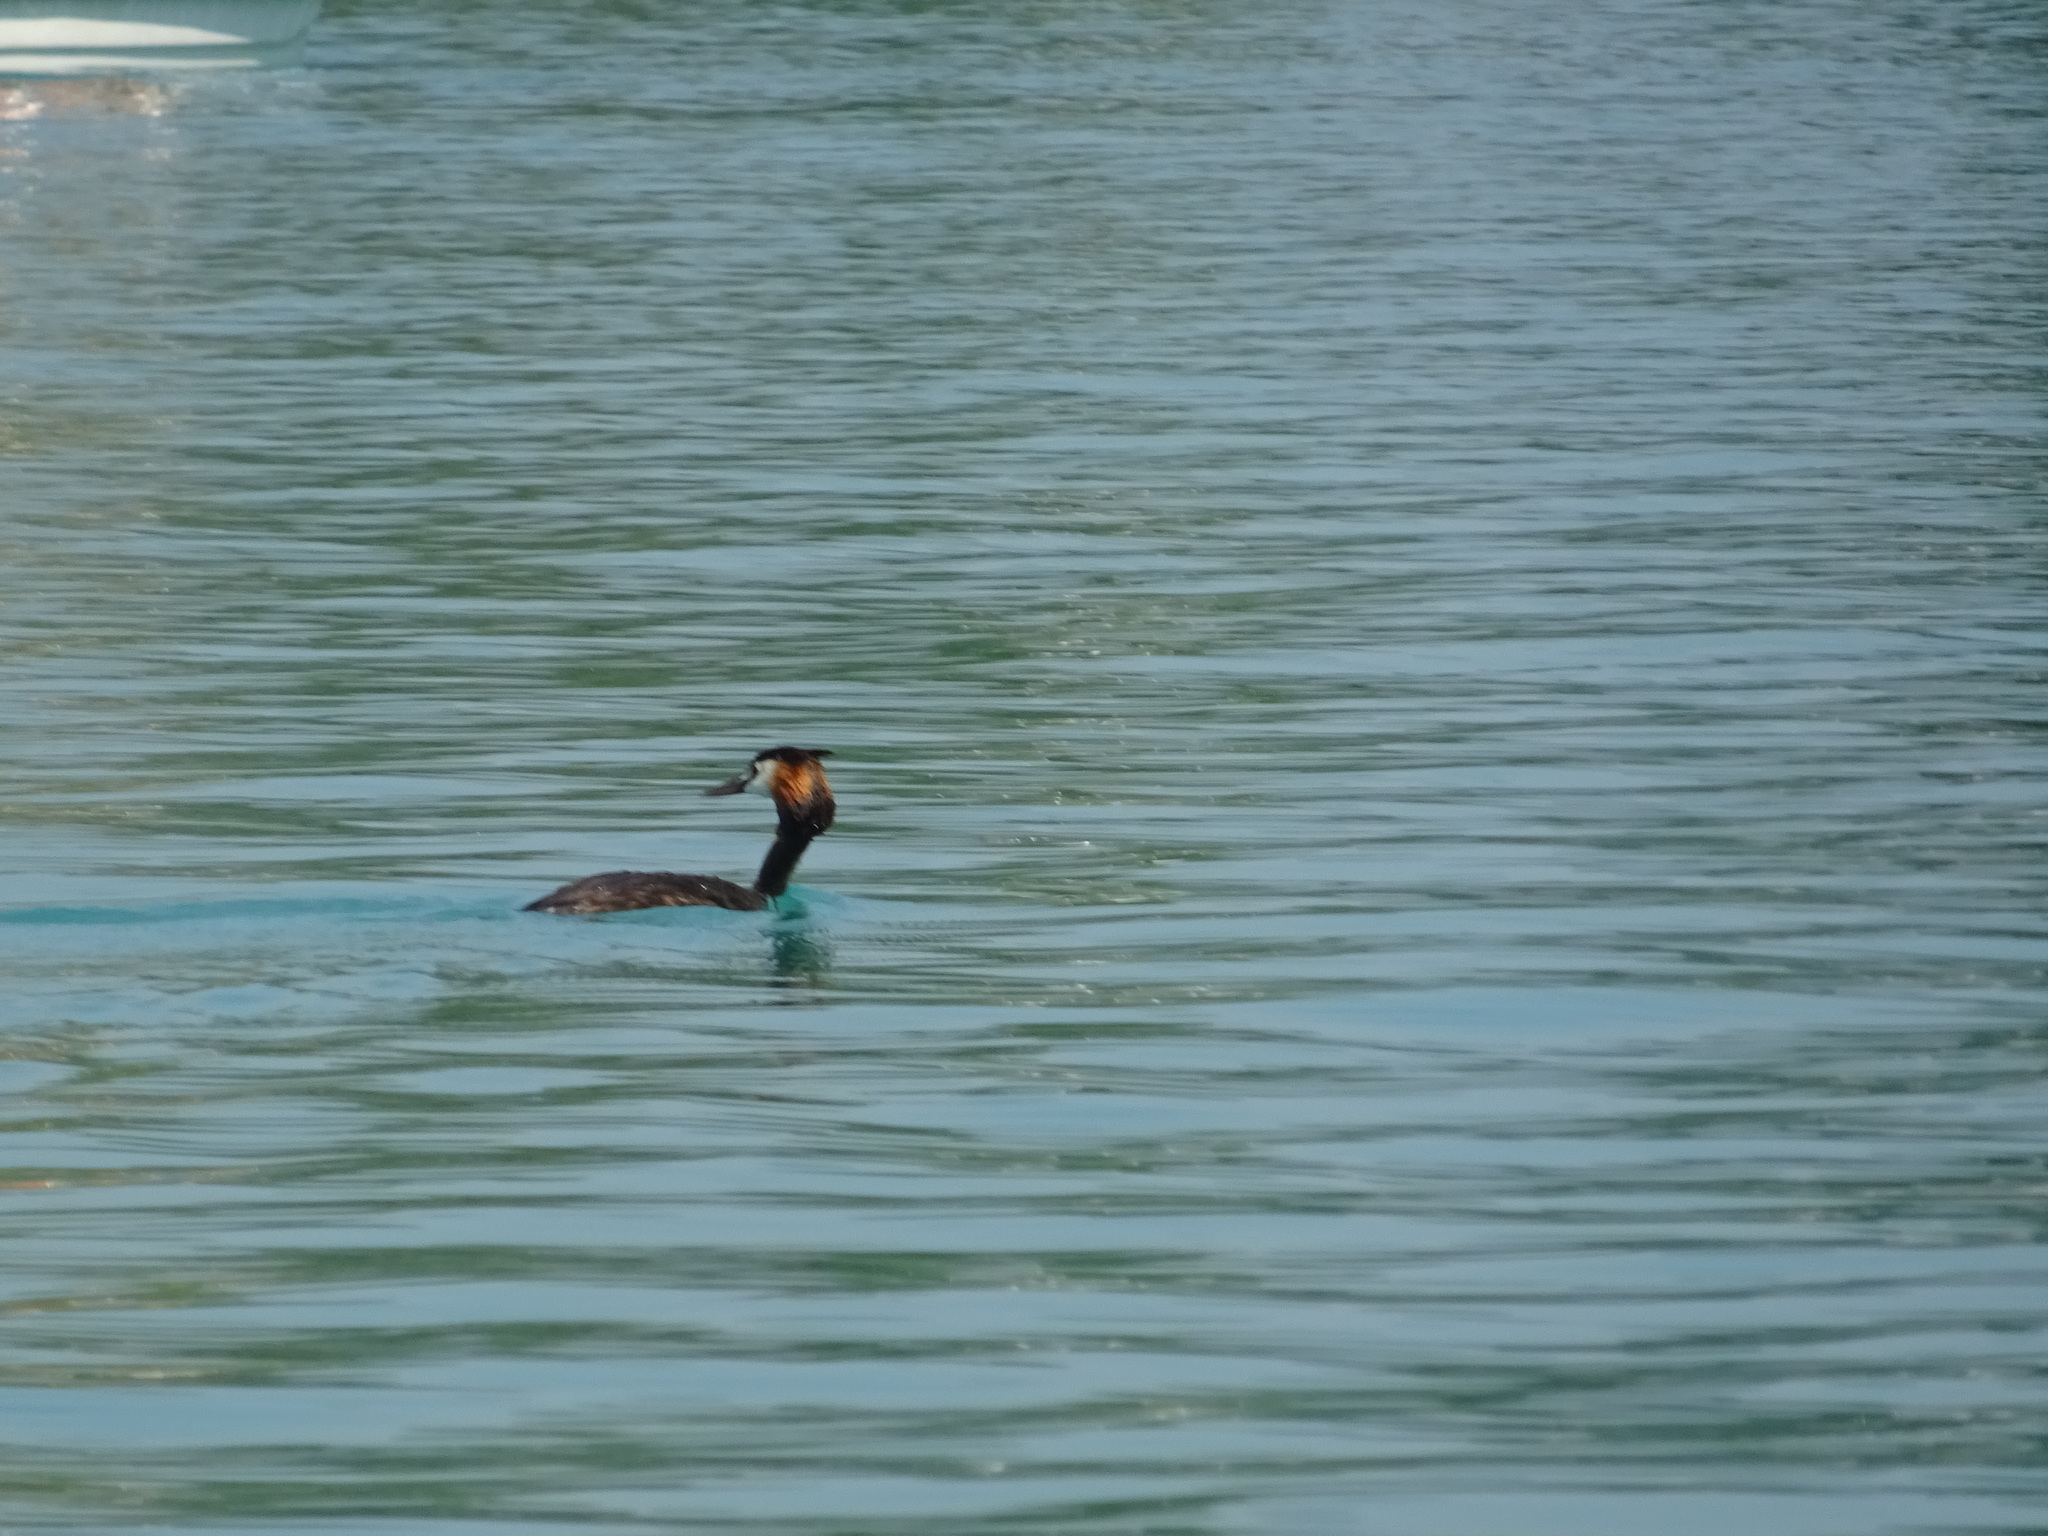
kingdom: Animalia
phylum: Chordata
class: Aves
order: Podicipediformes
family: Podicipedidae
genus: Podiceps
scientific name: Podiceps cristatus
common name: Great crested grebe
